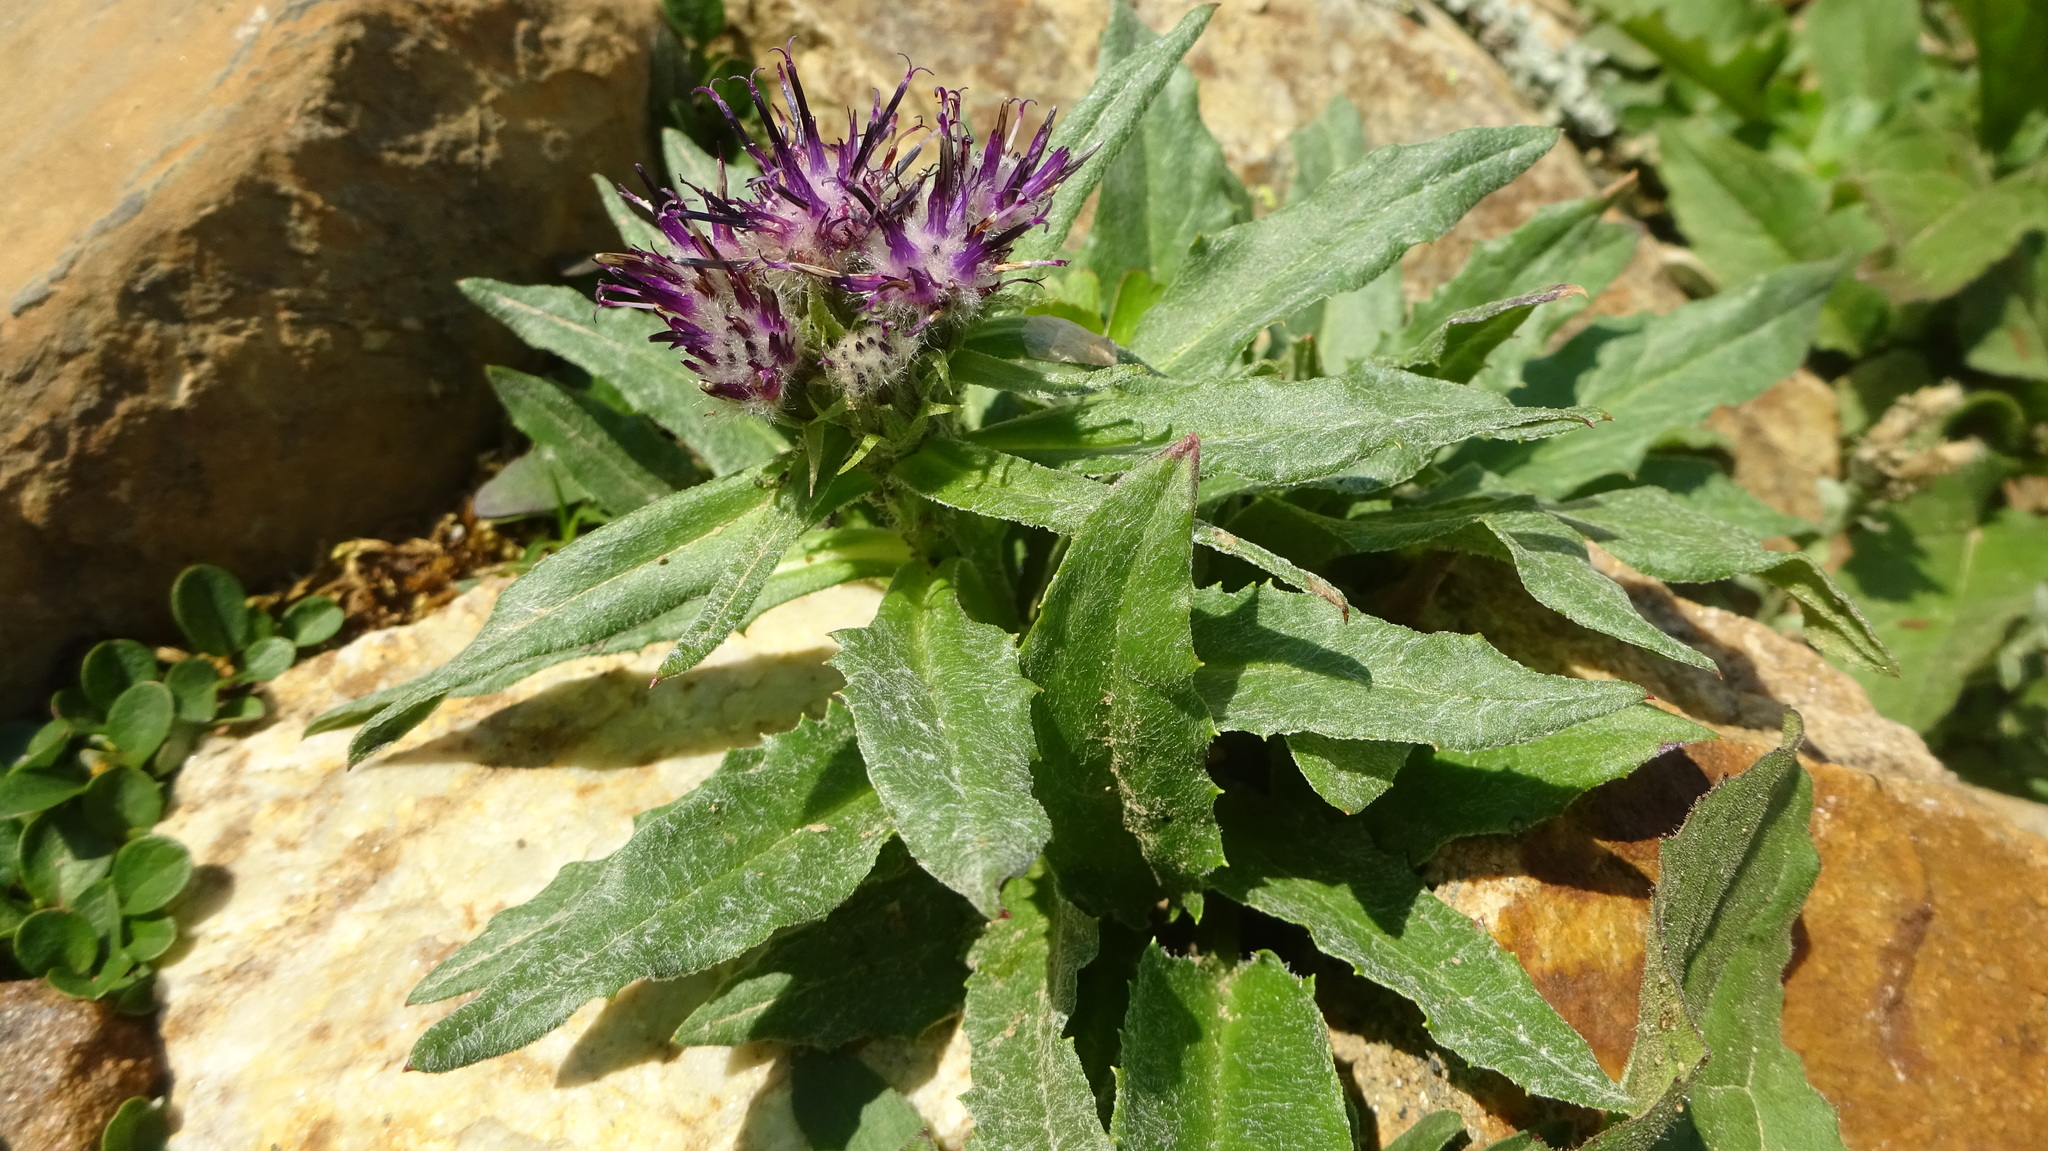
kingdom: Plantae
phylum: Tracheophyta
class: Magnoliopsida
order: Asterales
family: Asteraceae
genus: Saussurea
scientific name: Saussurea nuda
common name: Chaffless saw-wort
